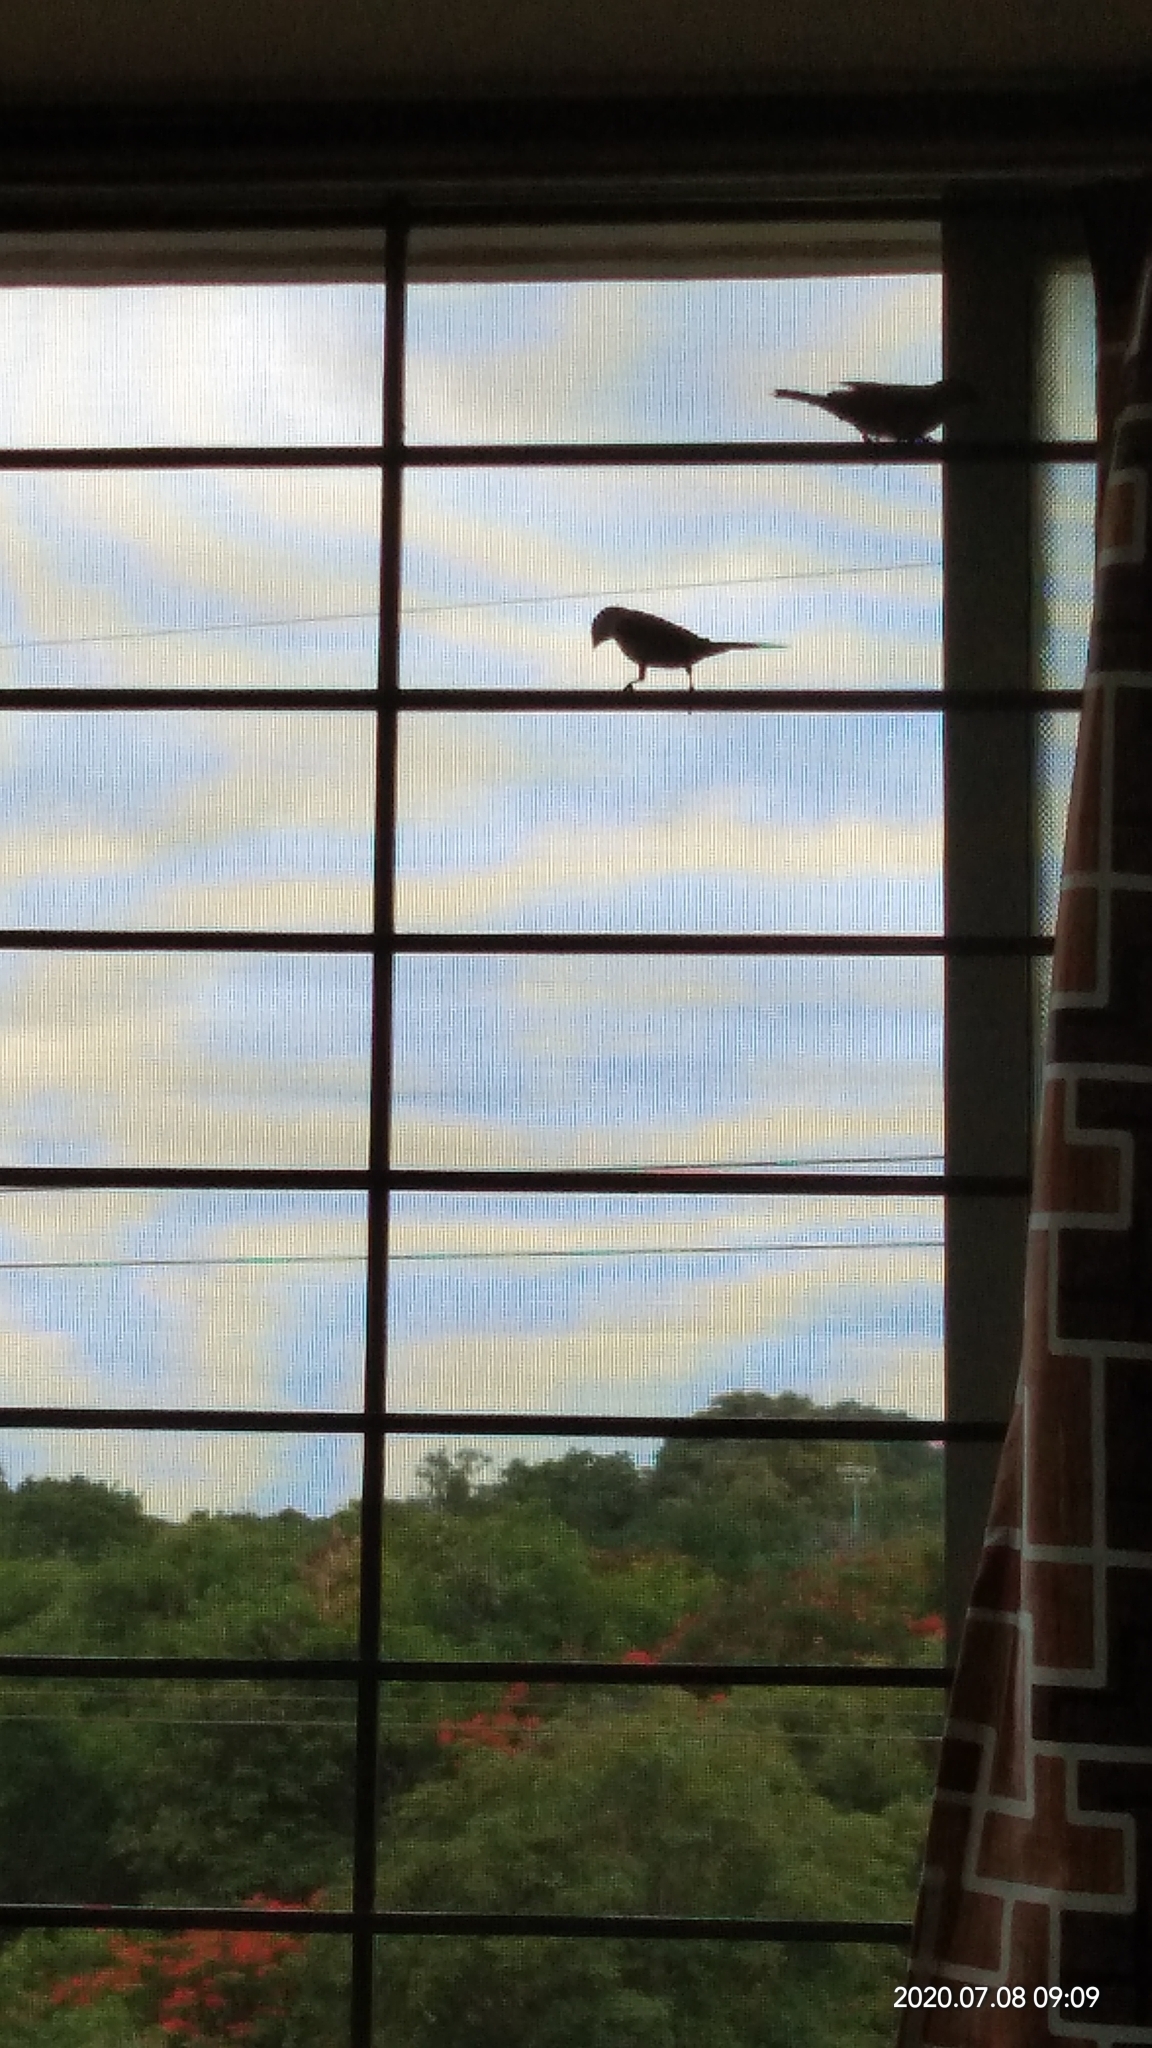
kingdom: Animalia
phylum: Chordata
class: Aves
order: Passeriformes
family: Passeridae
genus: Passer
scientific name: Passer domesticus
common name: House sparrow
